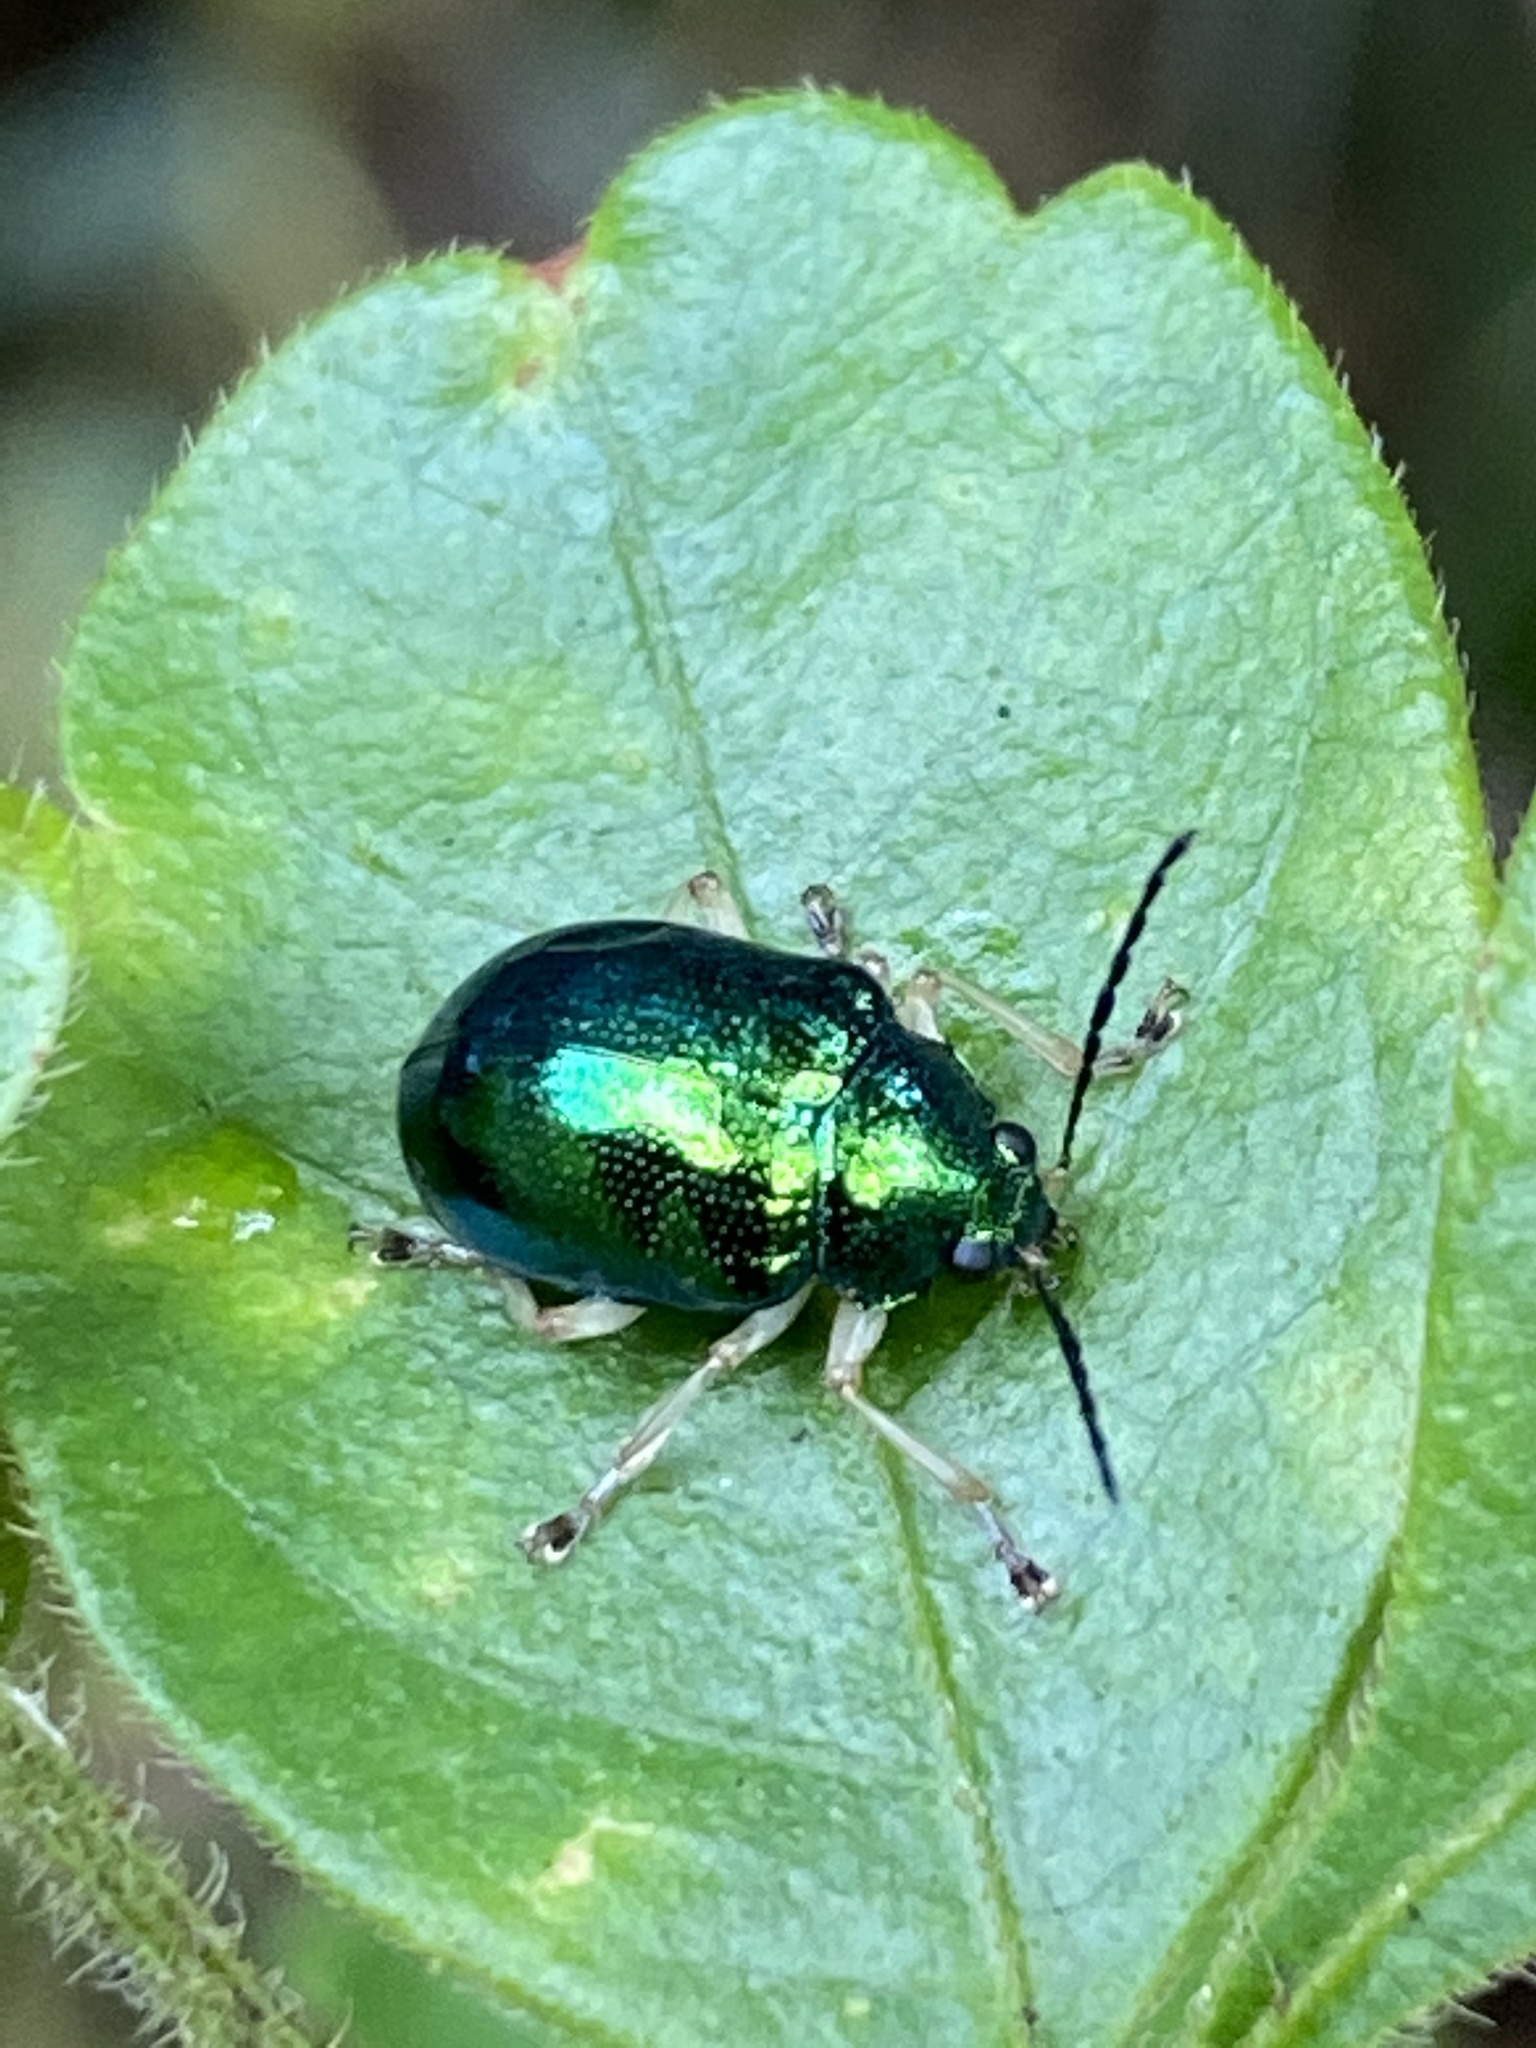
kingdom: Animalia
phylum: Arthropoda
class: Insecta
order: Coleoptera
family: Chrysomelidae
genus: Colaspis
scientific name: Colaspis
